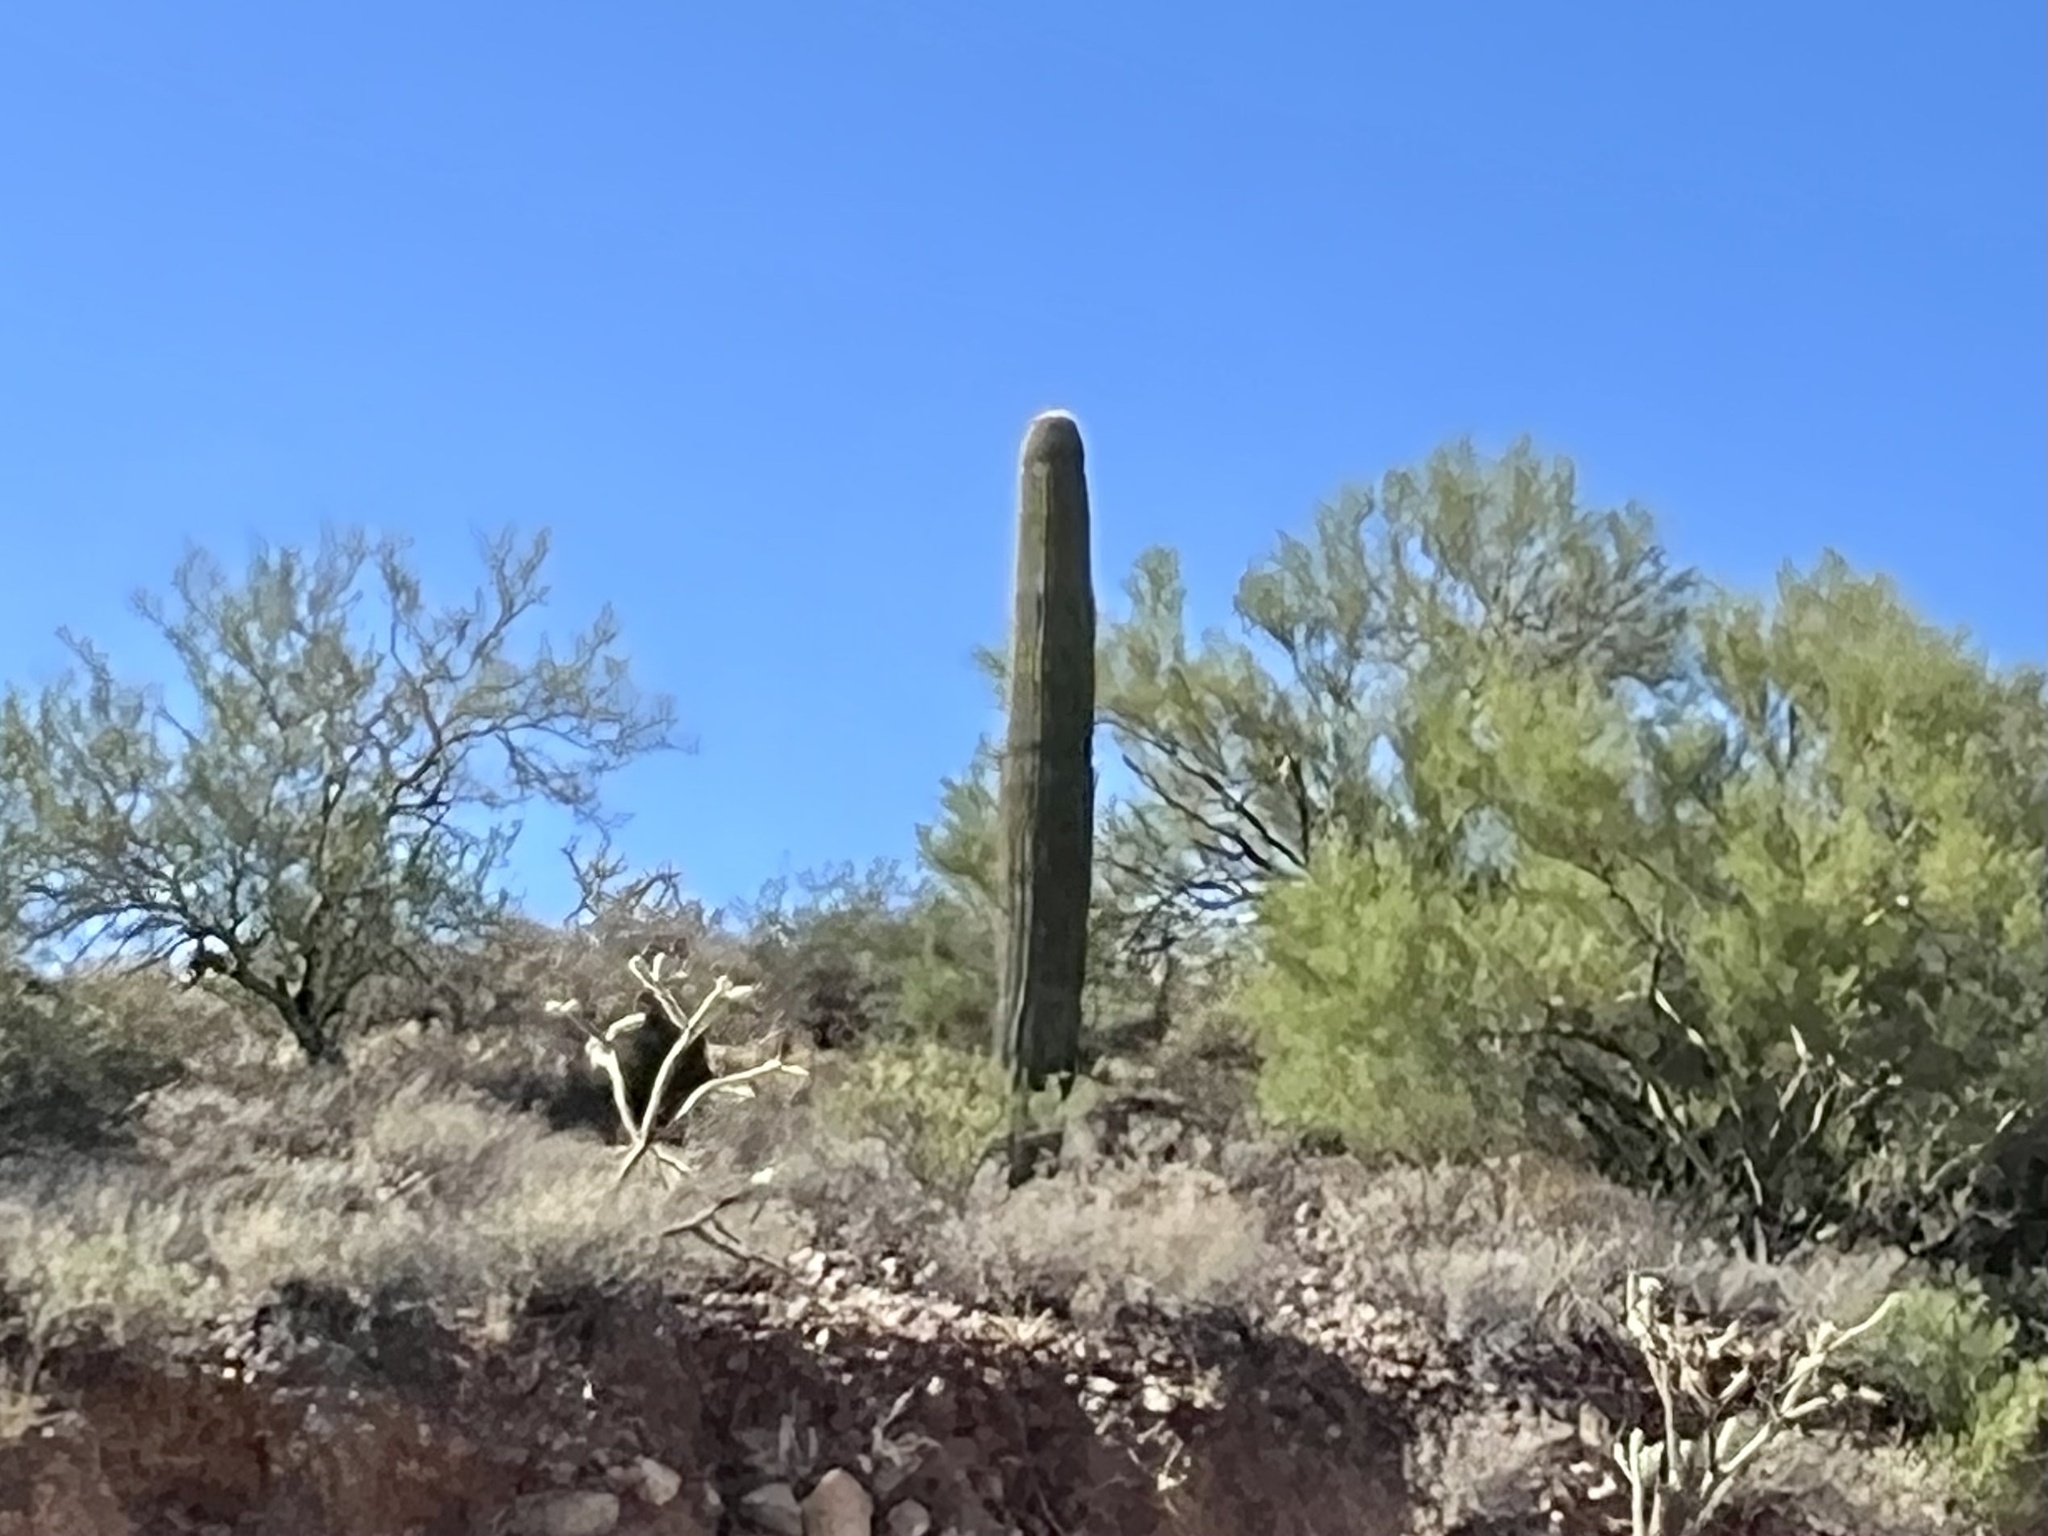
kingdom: Plantae
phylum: Tracheophyta
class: Magnoliopsida
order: Caryophyllales
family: Cactaceae
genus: Carnegiea
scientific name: Carnegiea gigantea
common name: Saguaro
